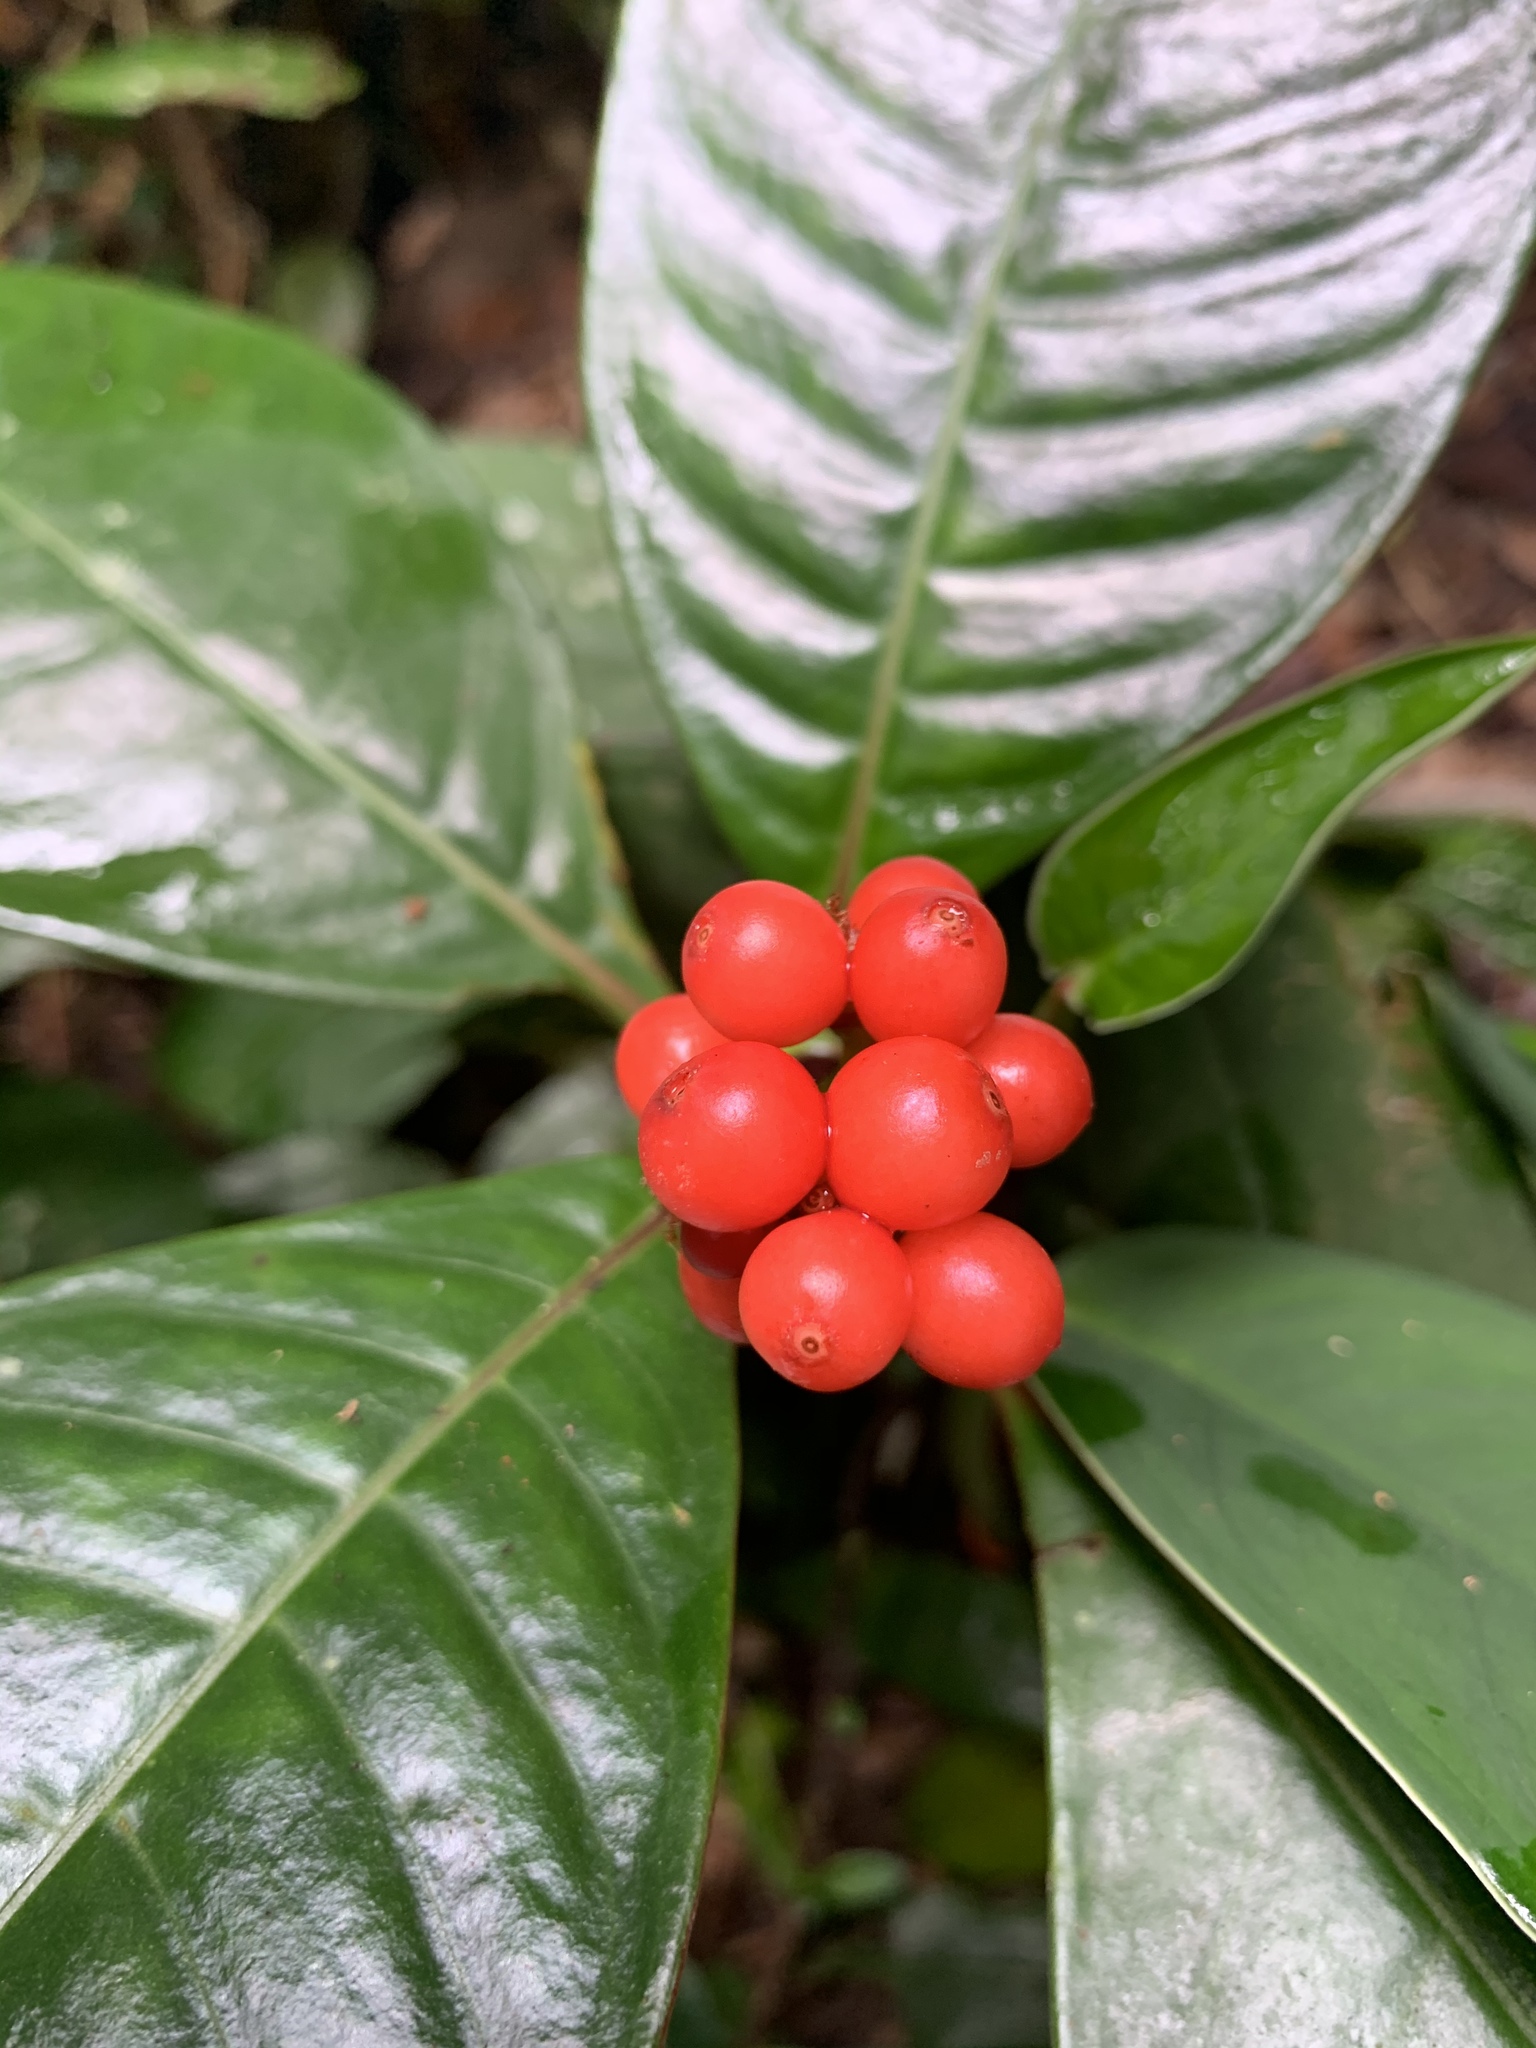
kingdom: Plantae
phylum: Tracheophyta
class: Magnoliopsida
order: Gentianales
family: Rubiaceae
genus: Notopleura
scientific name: Notopleura uliginosa
